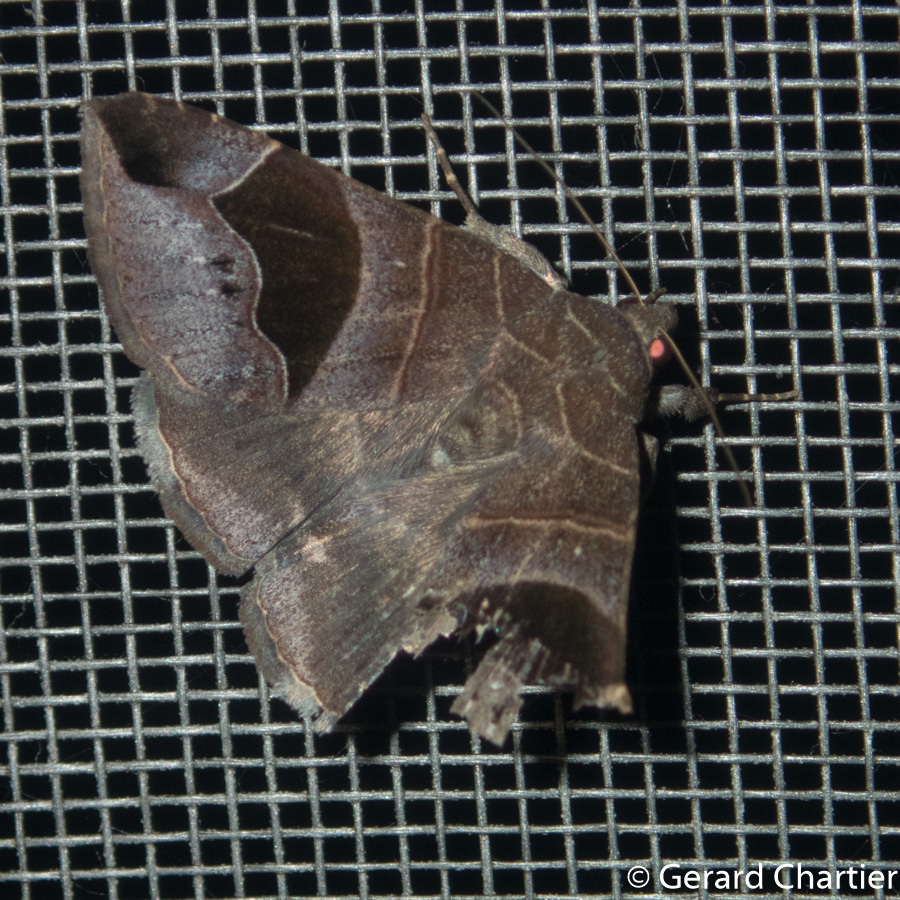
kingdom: Animalia
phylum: Arthropoda
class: Insecta
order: Lepidoptera
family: Erebidae
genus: Bastilla
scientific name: Bastilla joviana
